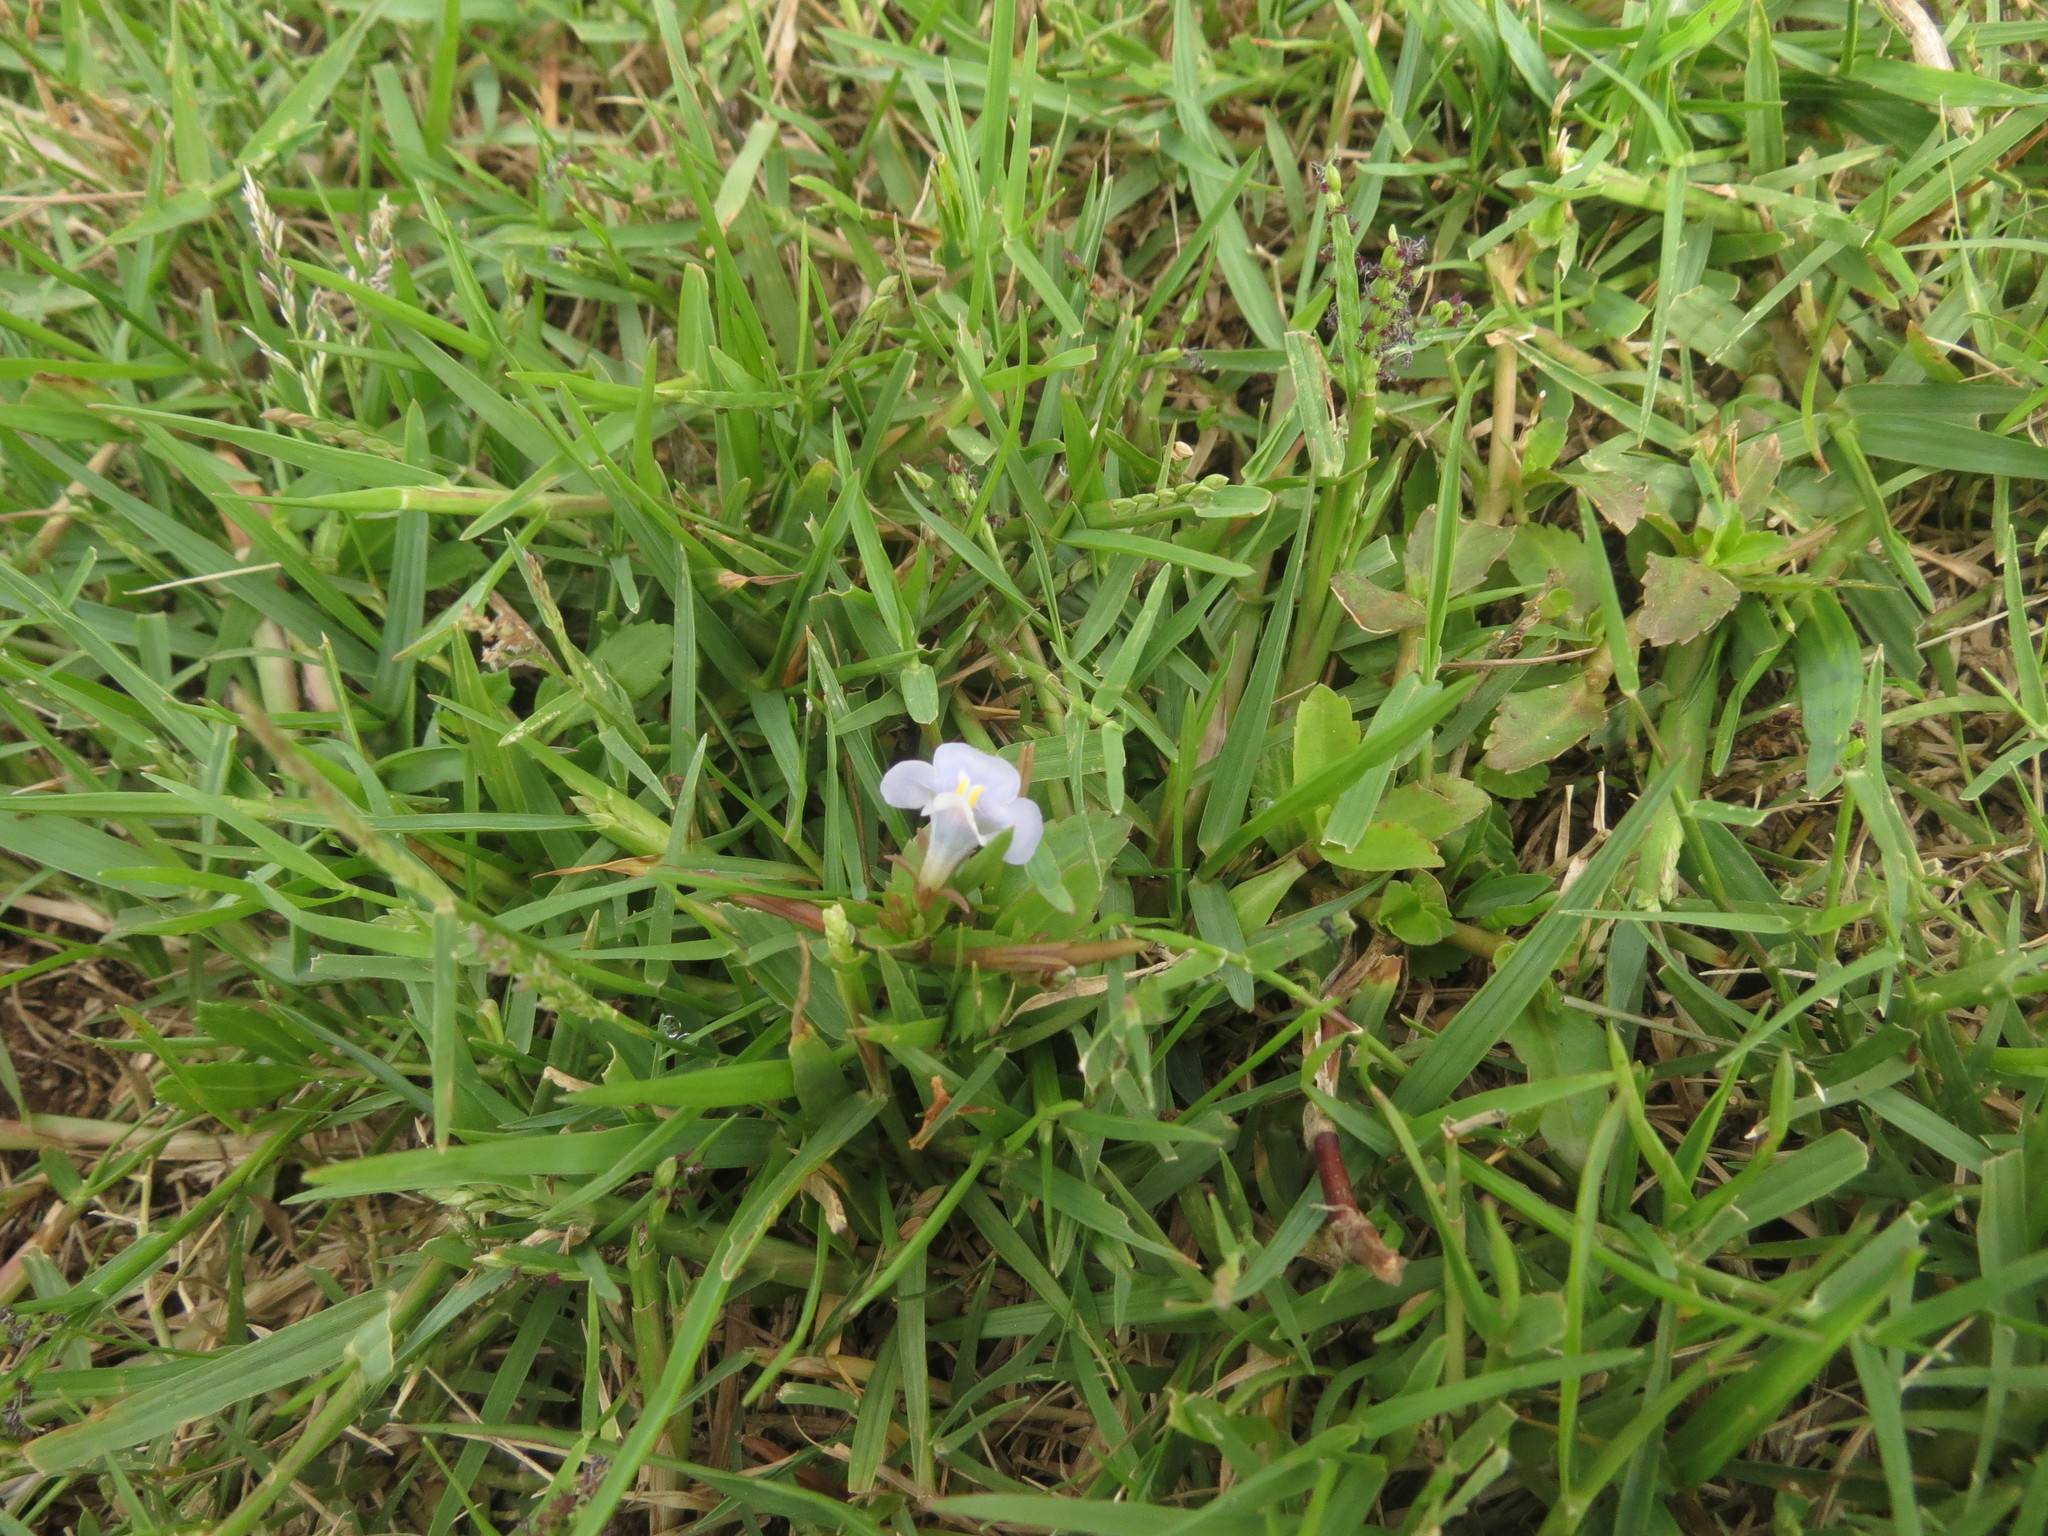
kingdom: Plantae
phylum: Tracheophyta
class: Magnoliopsida
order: Lamiales
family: Linderniaceae
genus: Bonnaya
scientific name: Bonnaya antipoda
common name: Sparrow false pimpernel
